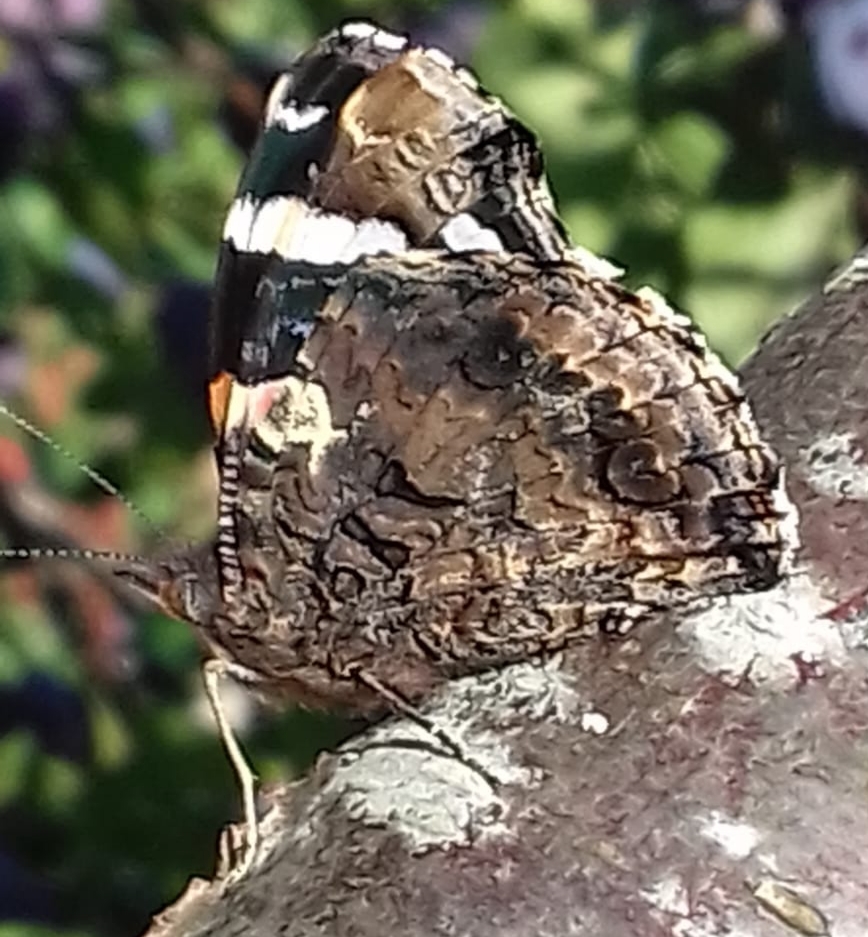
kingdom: Animalia
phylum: Arthropoda
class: Insecta
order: Lepidoptera
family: Nymphalidae
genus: Vanessa
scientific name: Vanessa atalanta
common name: Red admiral
